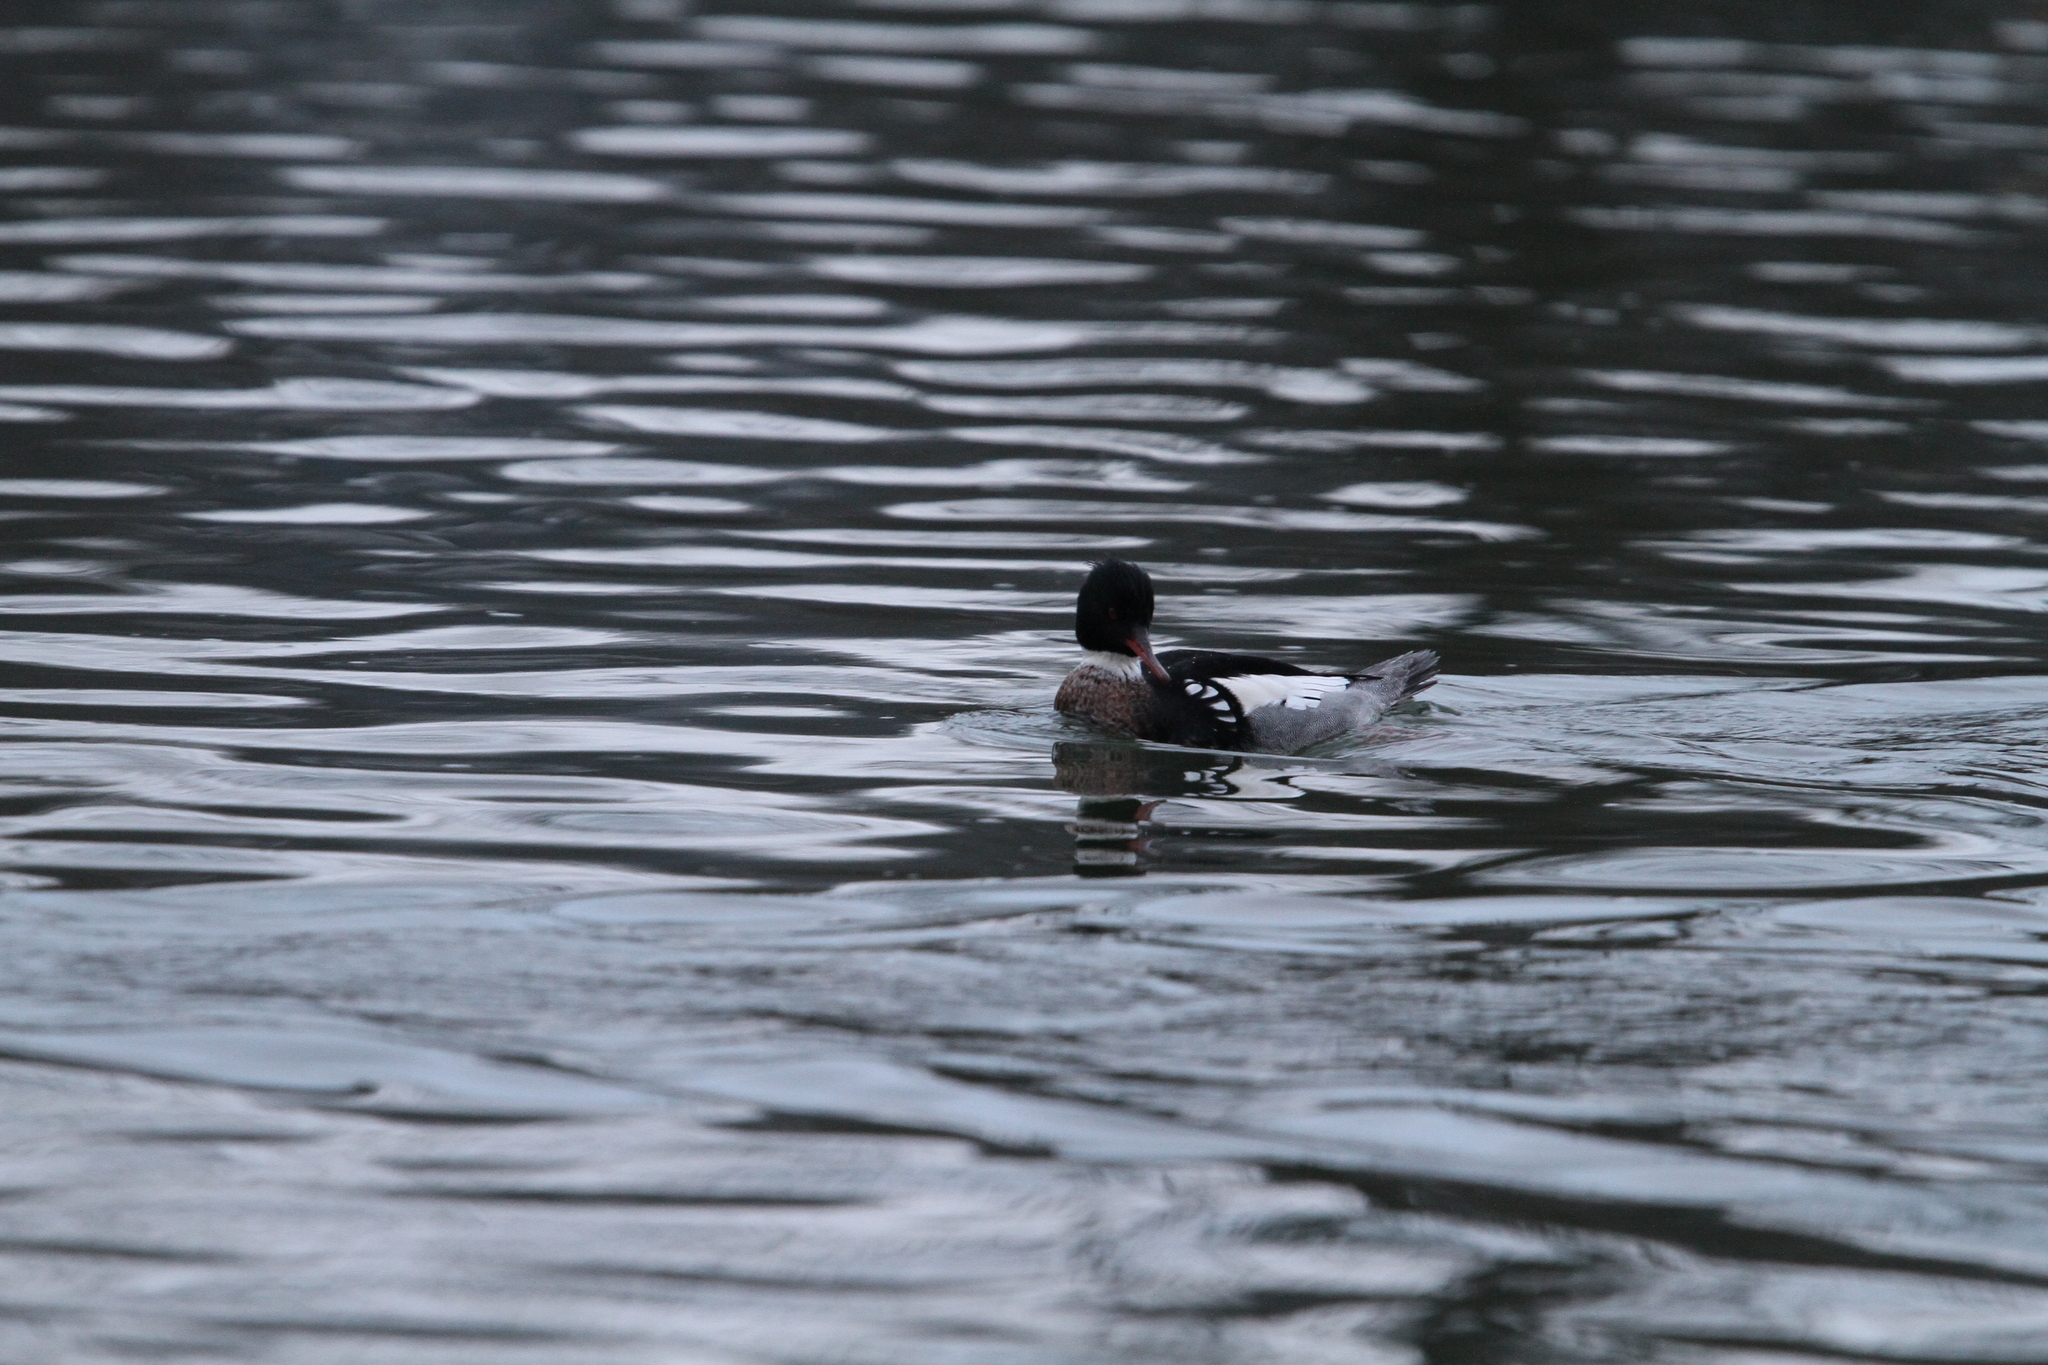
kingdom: Animalia
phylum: Chordata
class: Aves
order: Anseriformes
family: Anatidae
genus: Mergus
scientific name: Mergus serrator
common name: Red-breasted merganser
